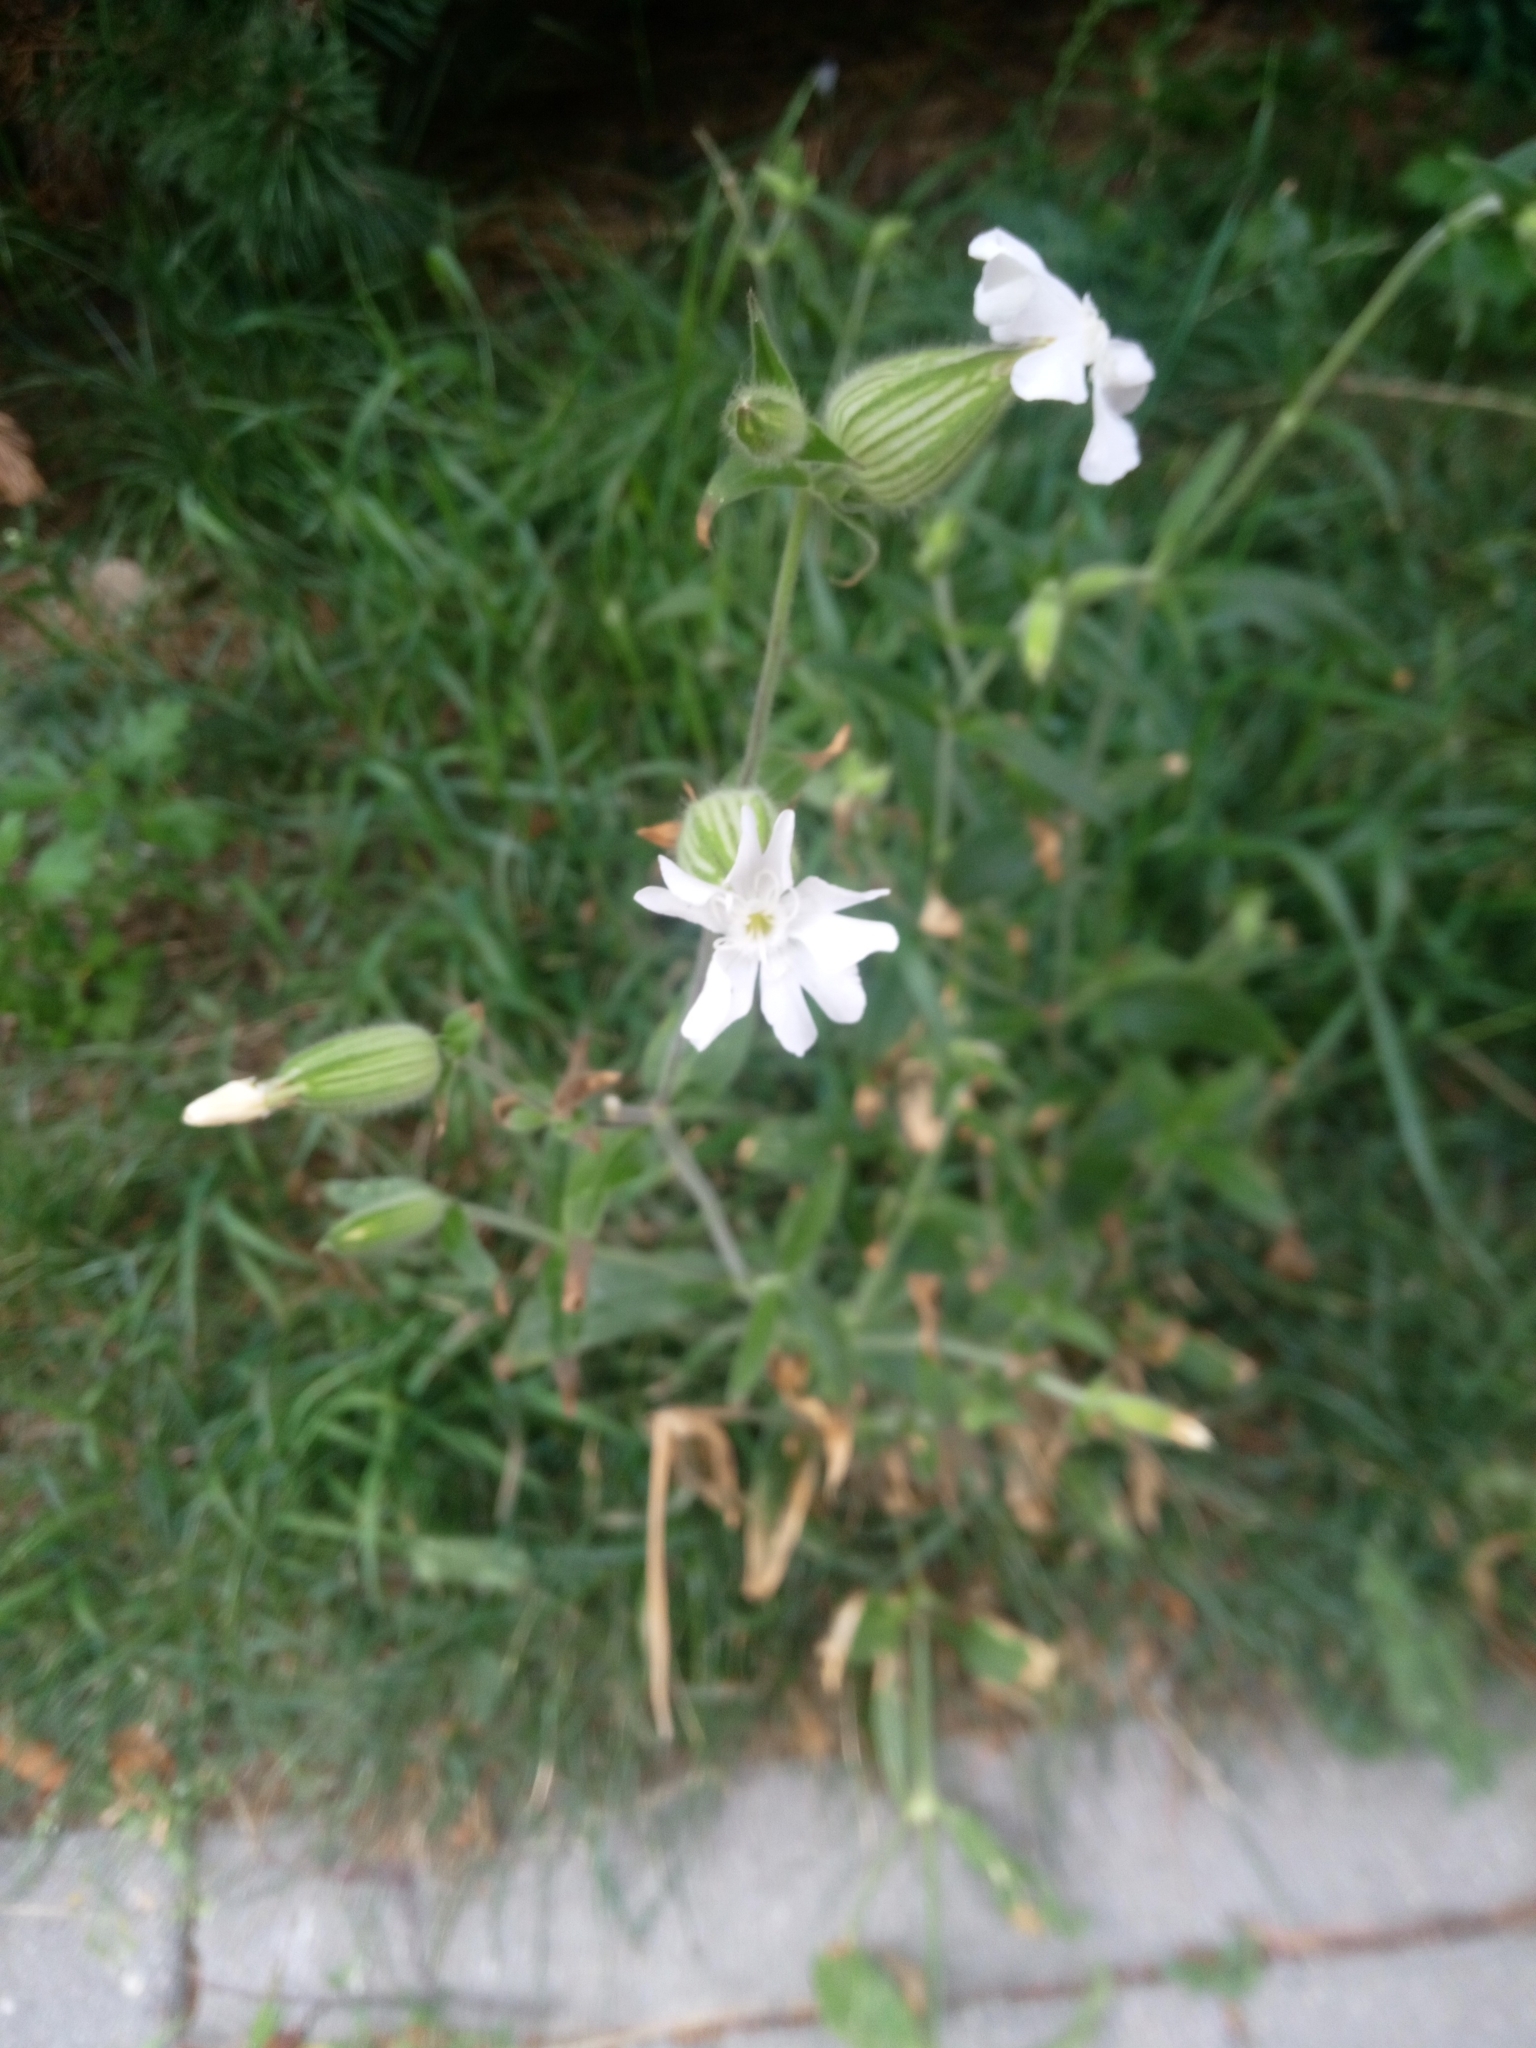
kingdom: Plantae
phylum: Tracheophyta
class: Magnoliopsida
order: Caryophyllales
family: Caryophyllaceae
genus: Silene
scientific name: Silene latifolia
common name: White campion
